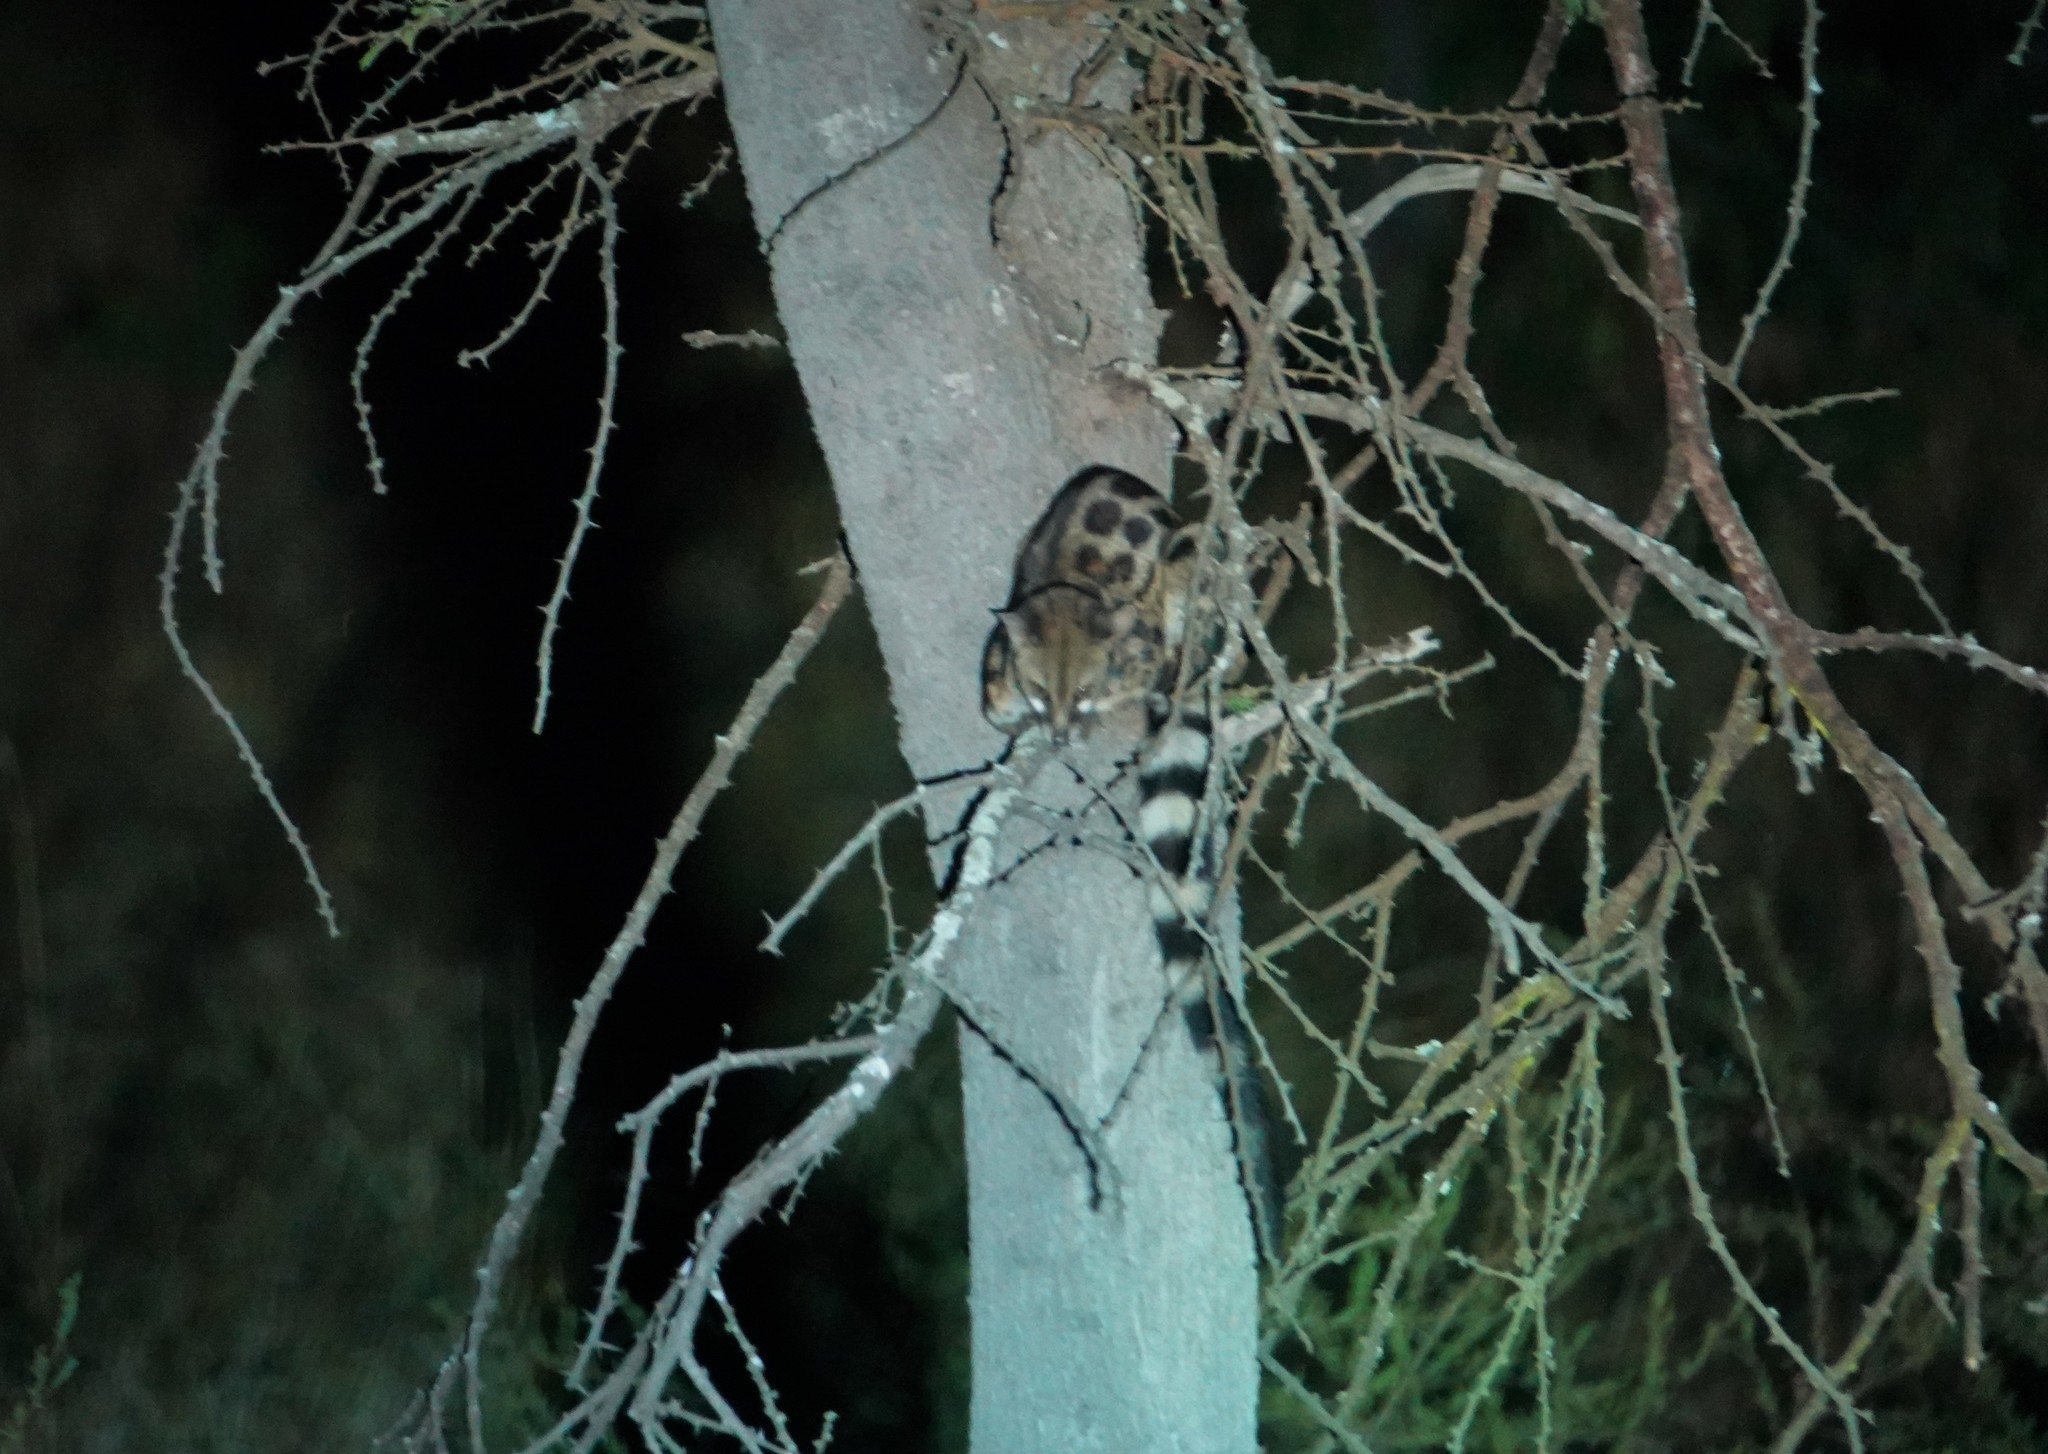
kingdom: Animalia
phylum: Chordata
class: Mammalia
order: Carnivora
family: Viverridae
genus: Genetta
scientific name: Genetta maculata
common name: Rusty-spotted genet
